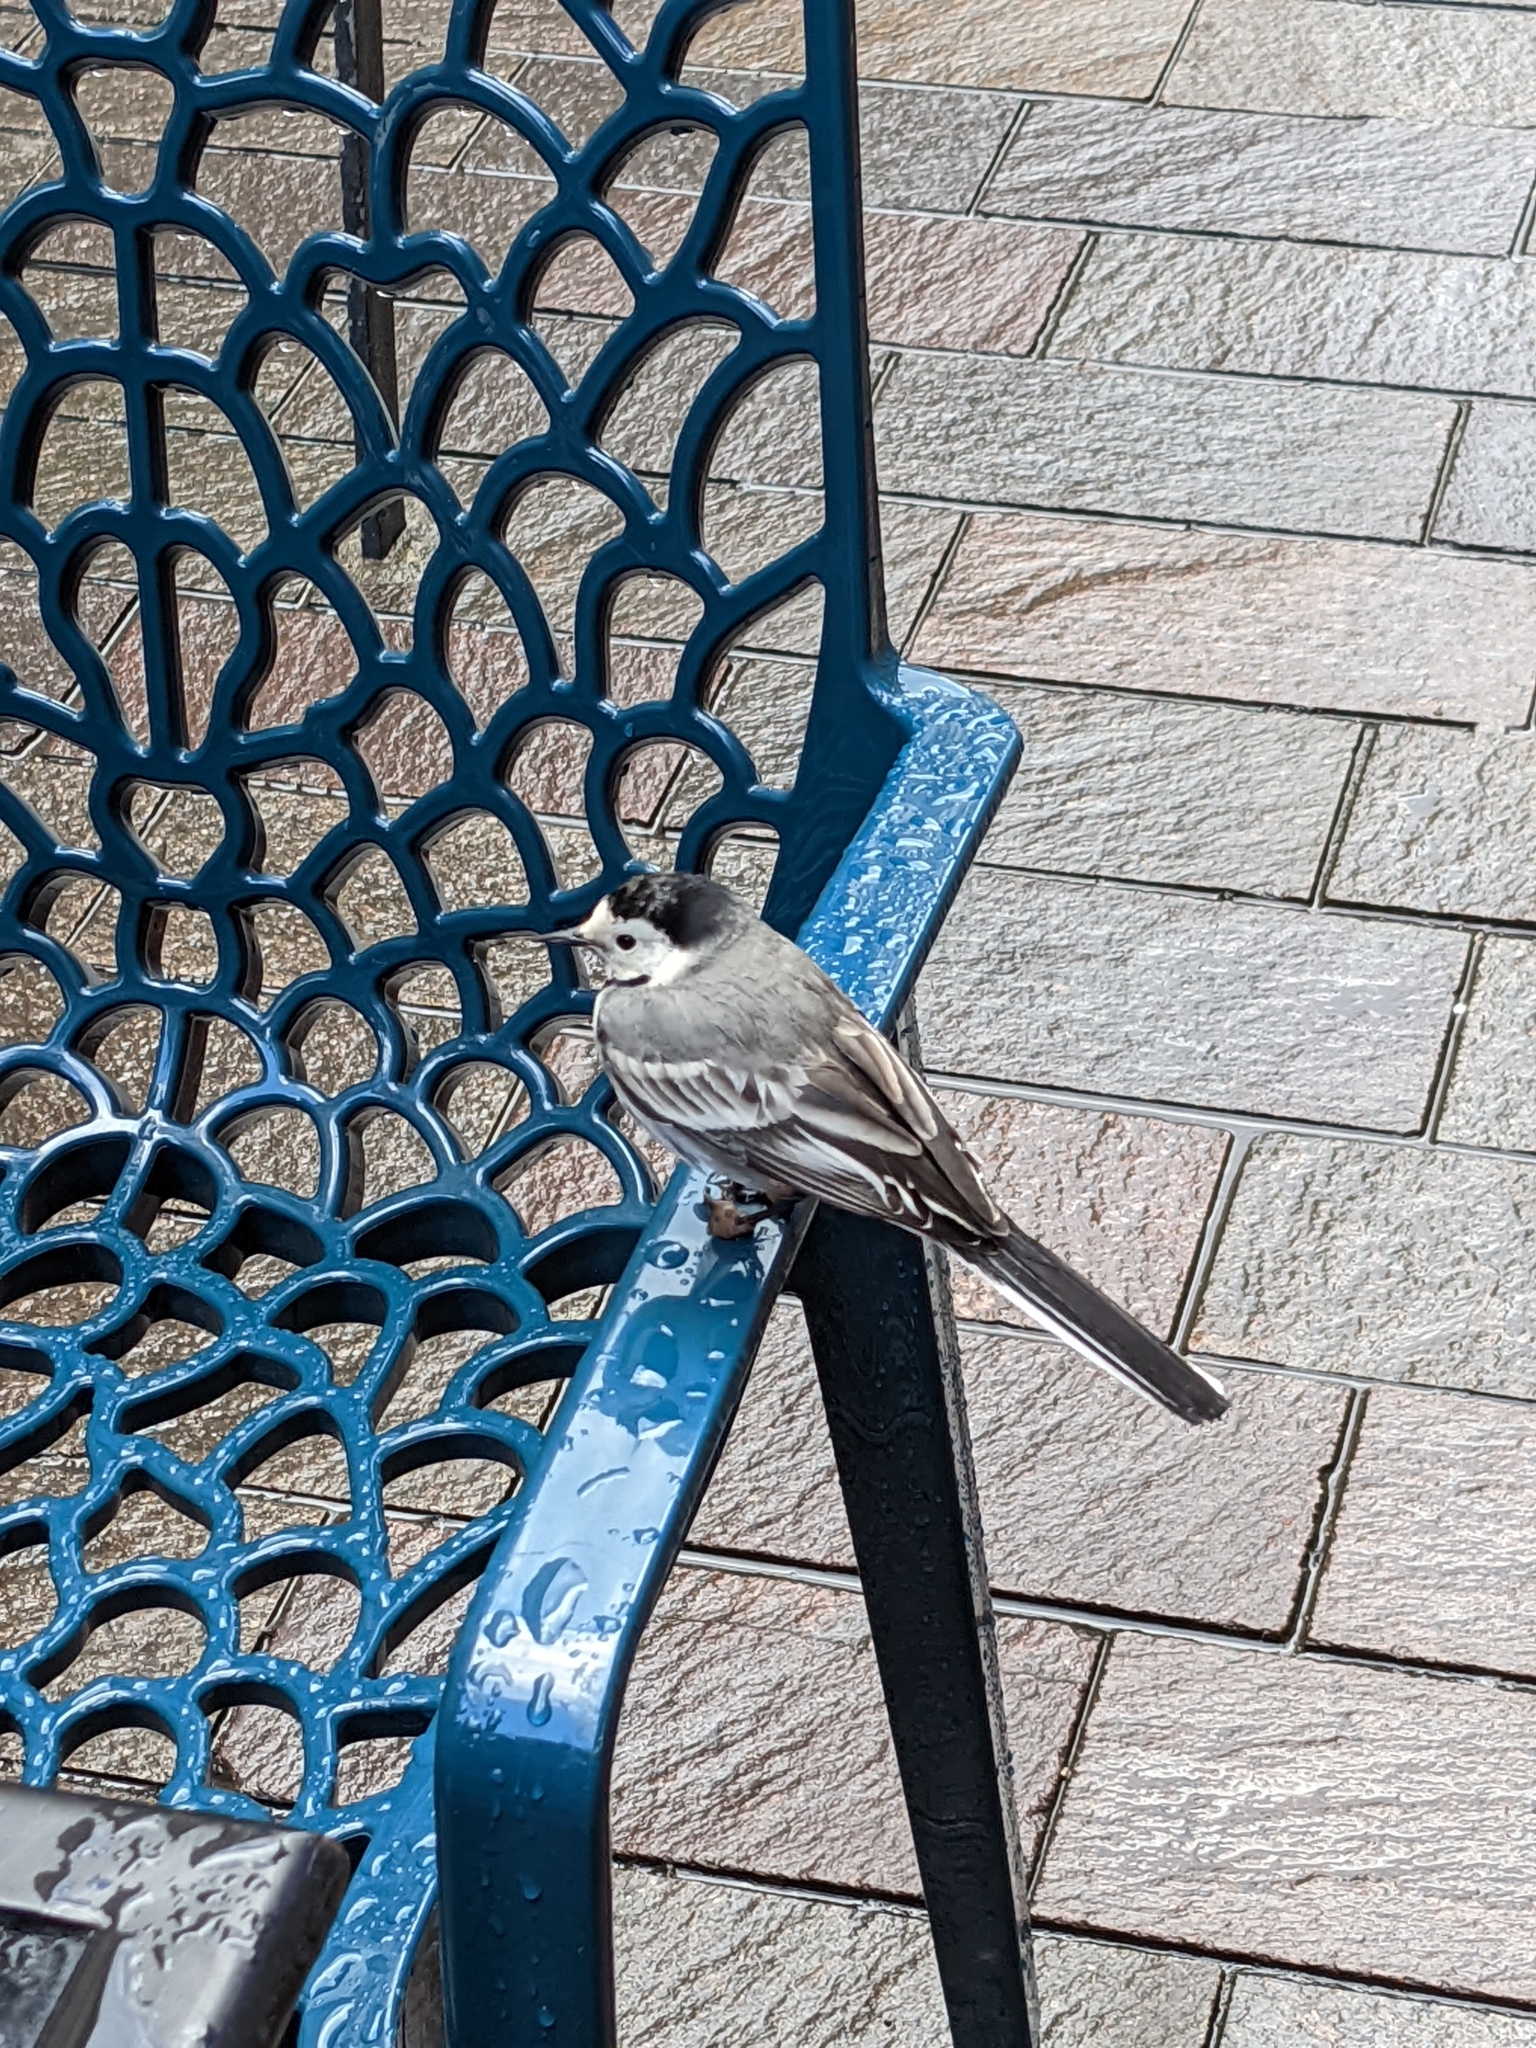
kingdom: Animalia
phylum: Chordata
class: Aves
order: Passeriformes
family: Motacillidae
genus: Motacilla
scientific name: Motacilla alba
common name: White wagtail
